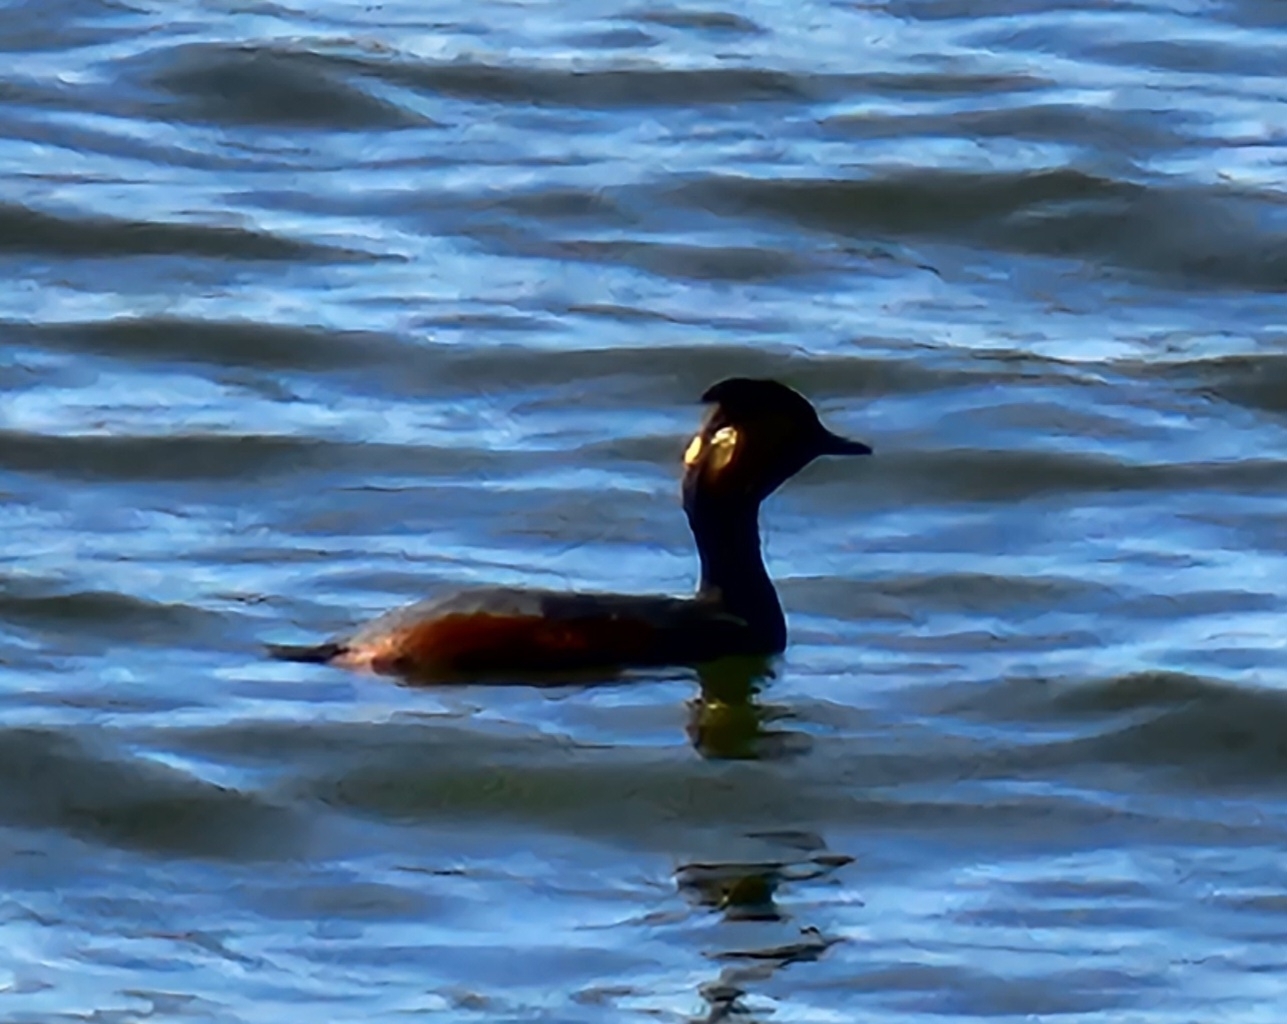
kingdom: Animalia
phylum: Chordata
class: Aves
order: Podicipediformes
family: Podicipedidae
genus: Podiceps
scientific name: Podiceps nigricollis
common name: Black-necked grebe
